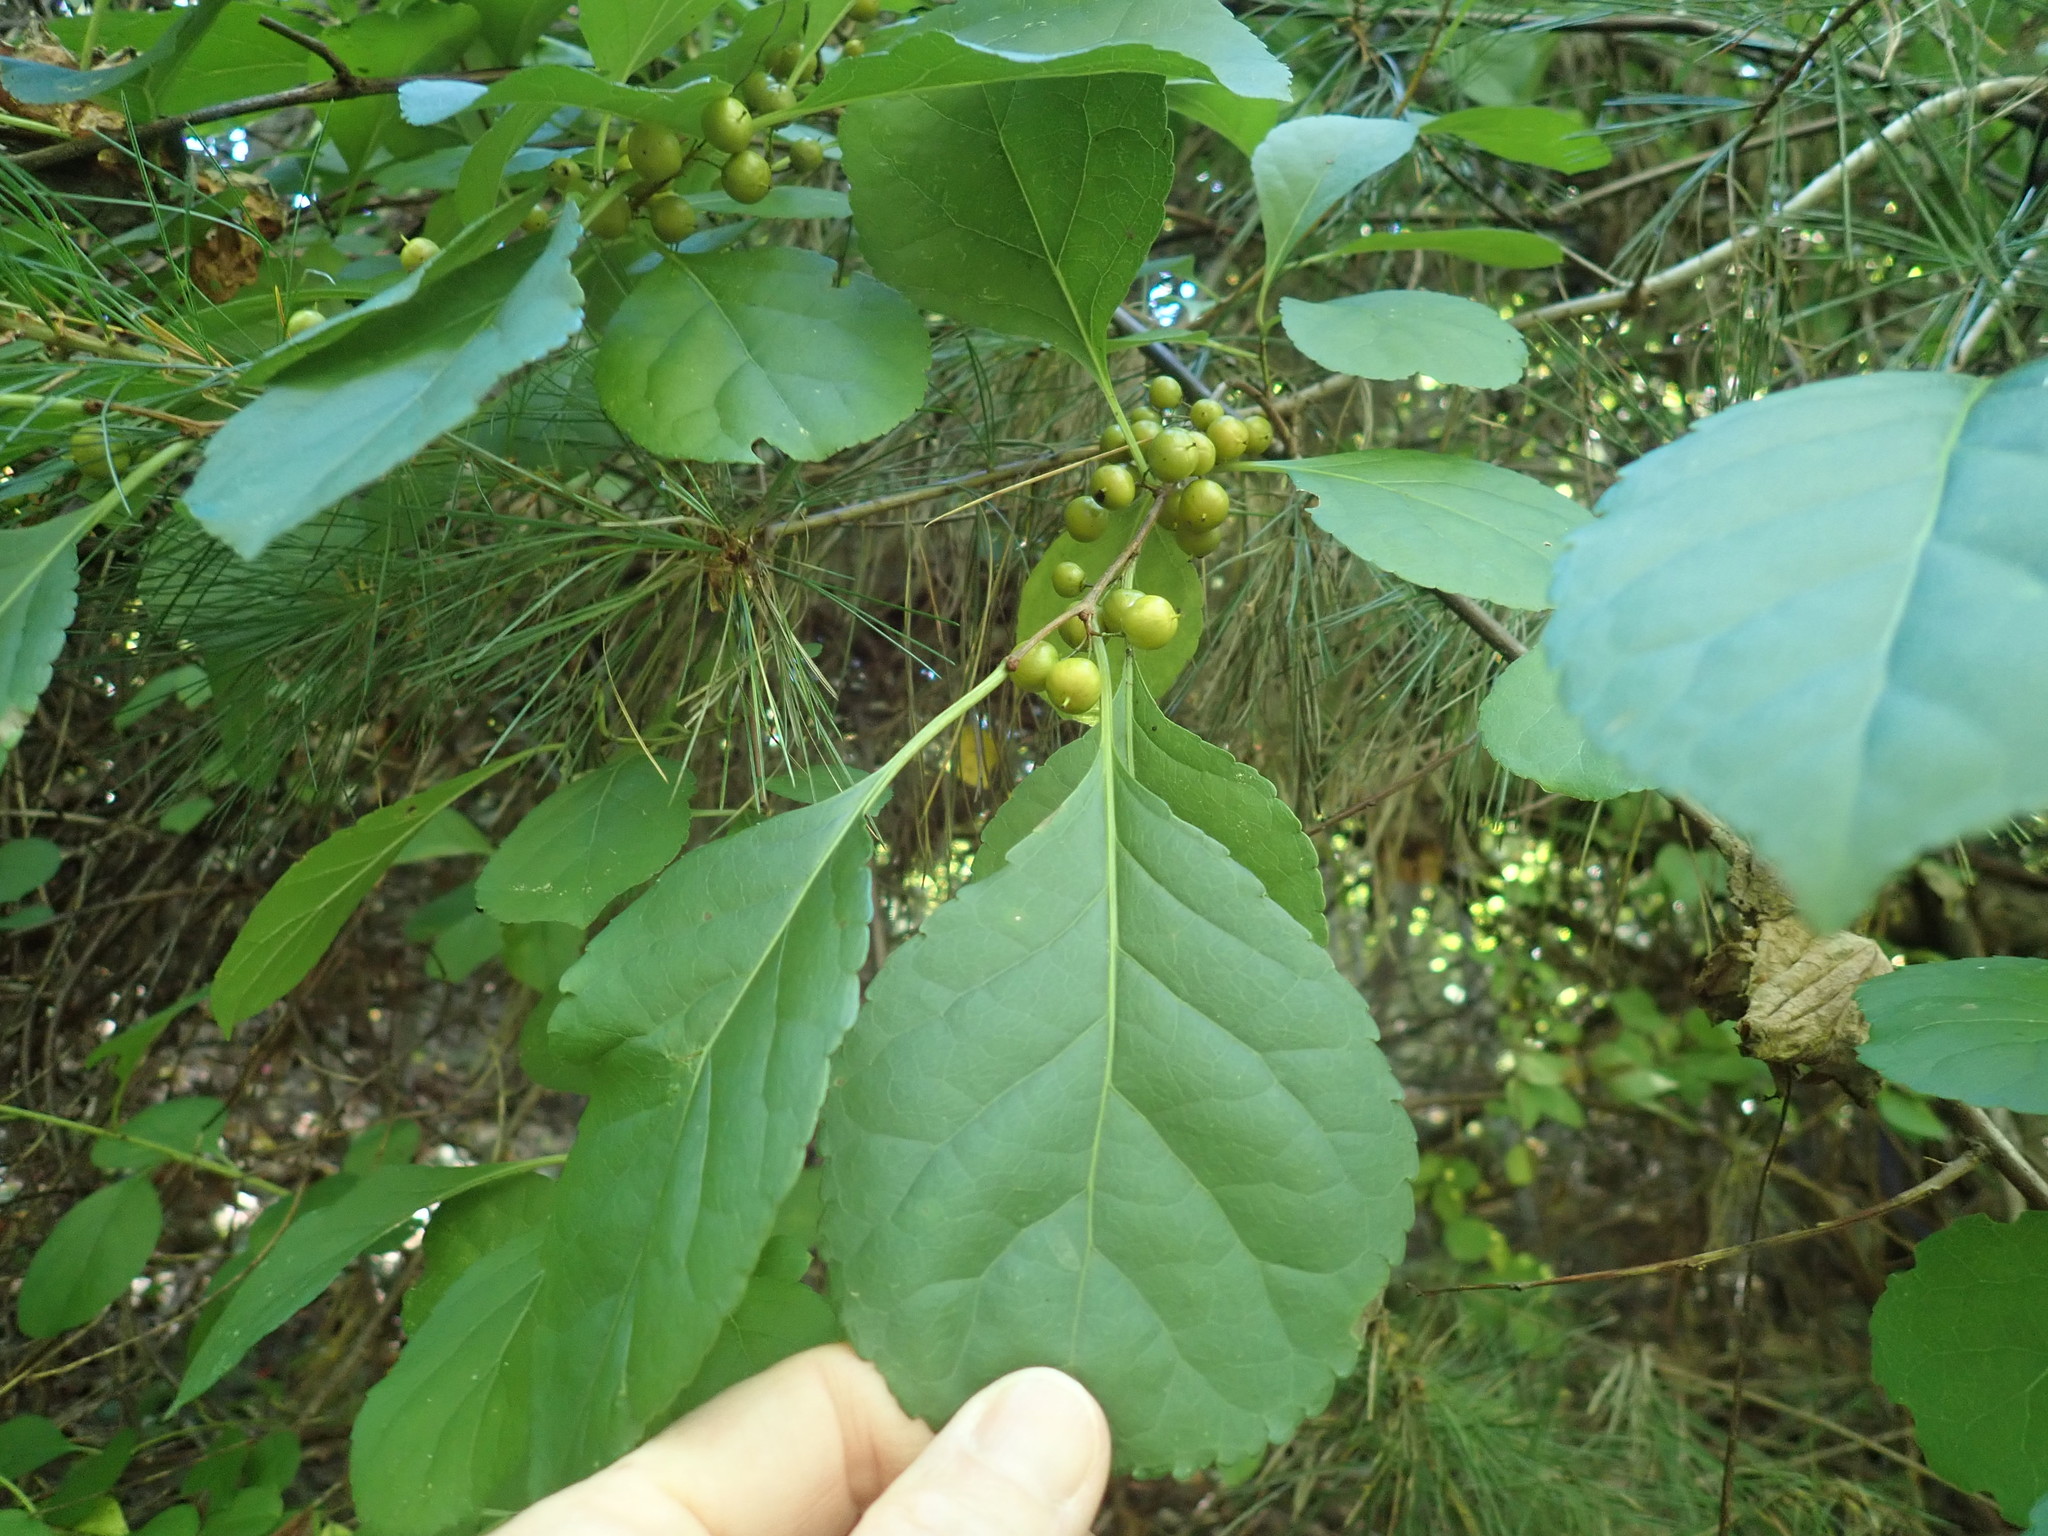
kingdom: Plantae
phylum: Tracheophyta
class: Magnoliopsida
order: Celastrales
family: Celastraceae
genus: Celastrus
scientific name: Celastrus orbiculatus
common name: Oriental bittersweet
